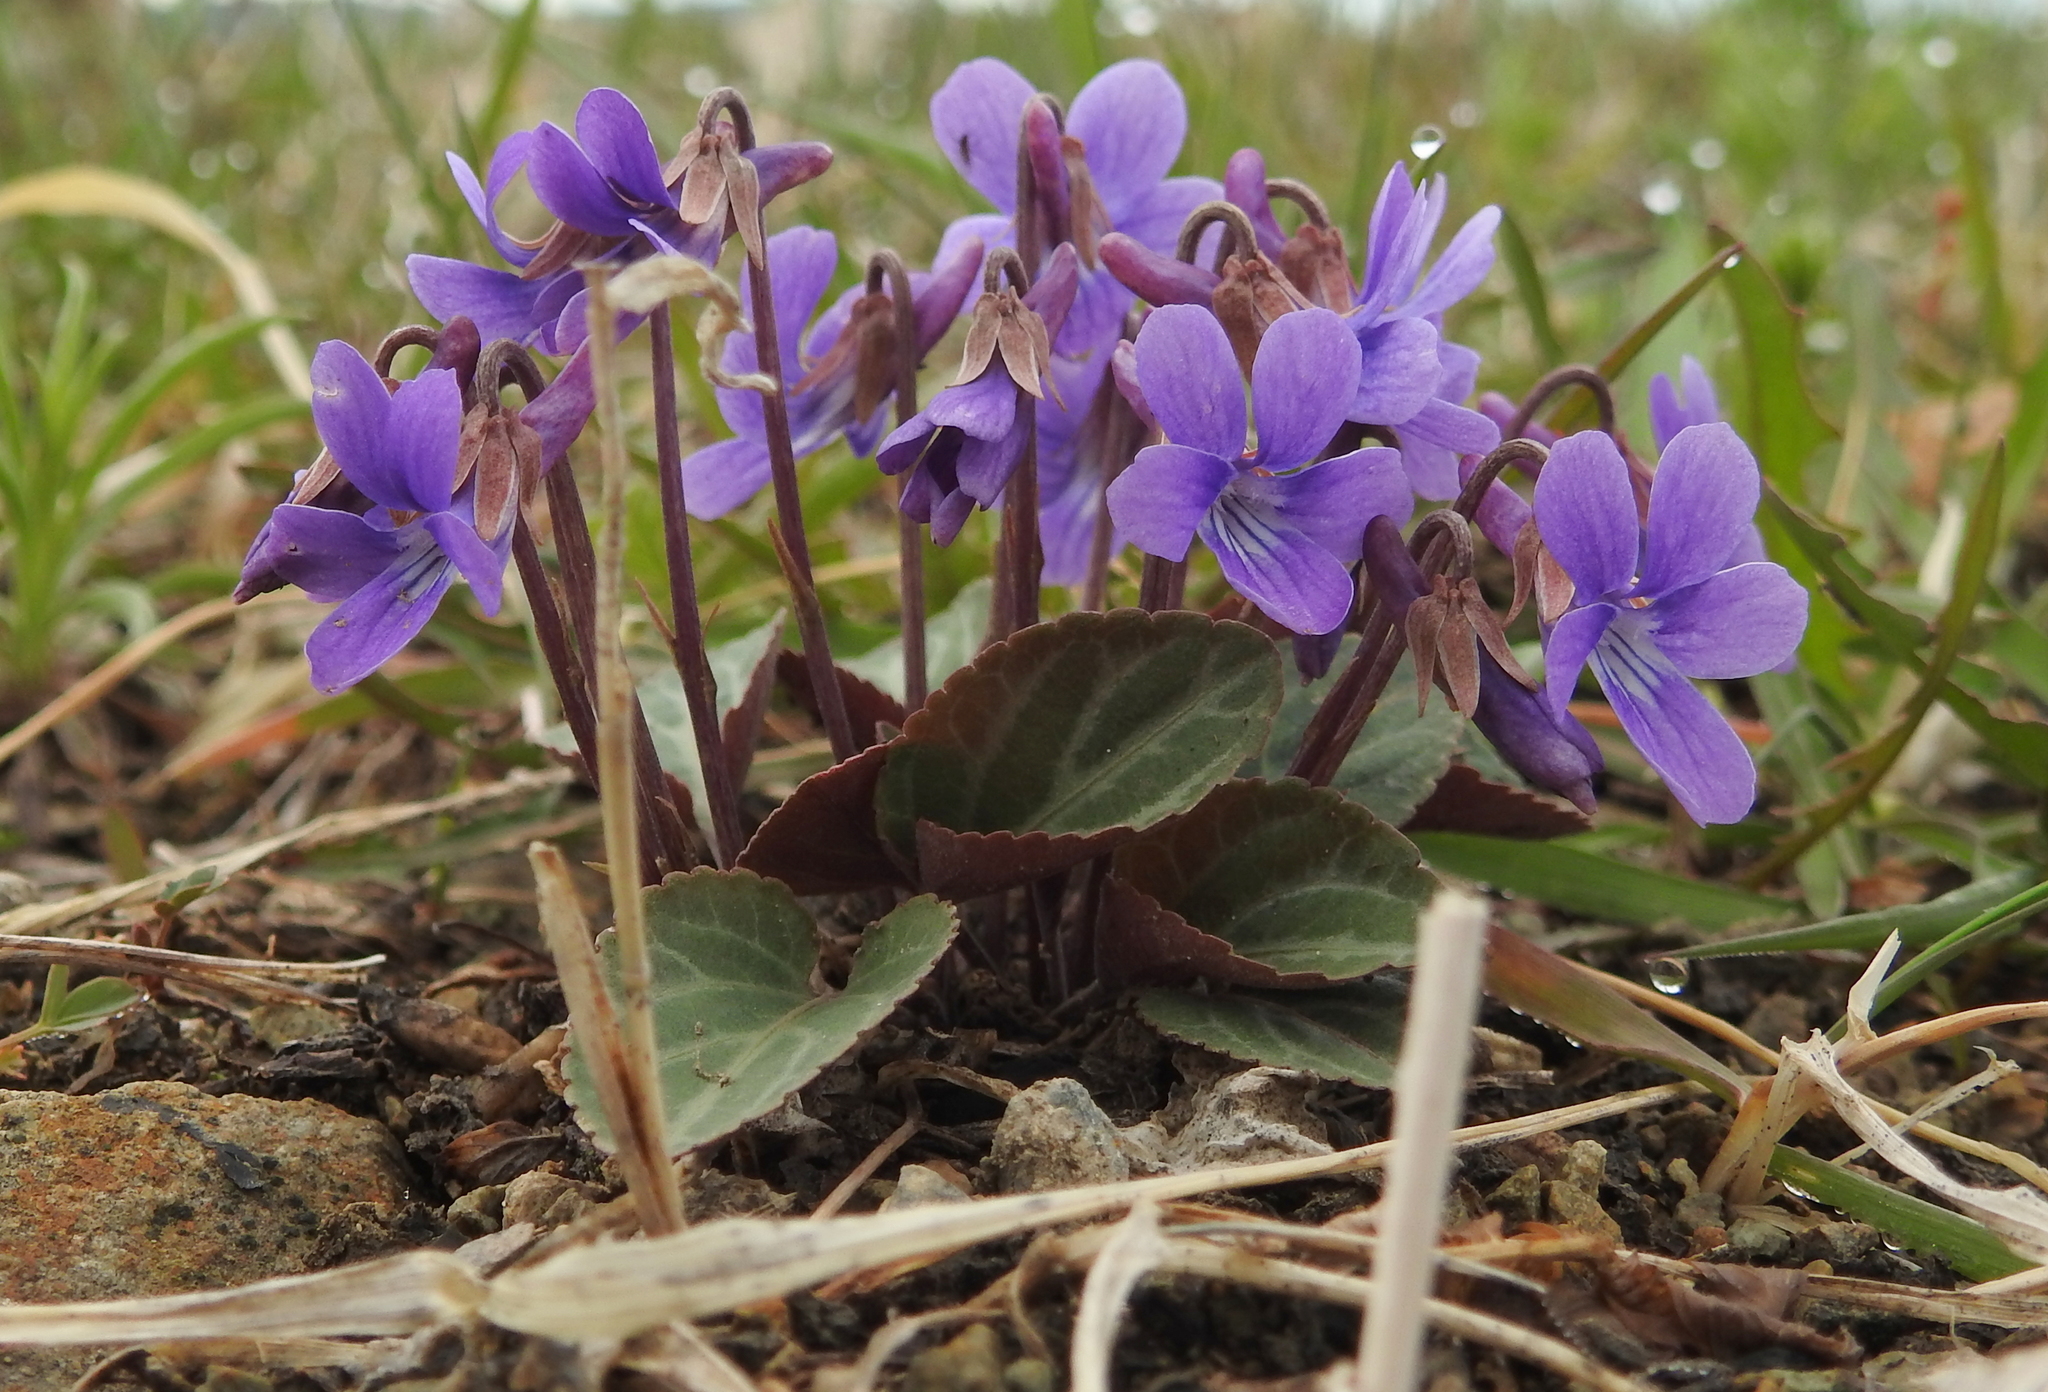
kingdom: Plantae
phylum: Tracheophyta
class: Magnoliopsida
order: Malpighiales
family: Violaceae
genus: Viola
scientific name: Viola variegata
